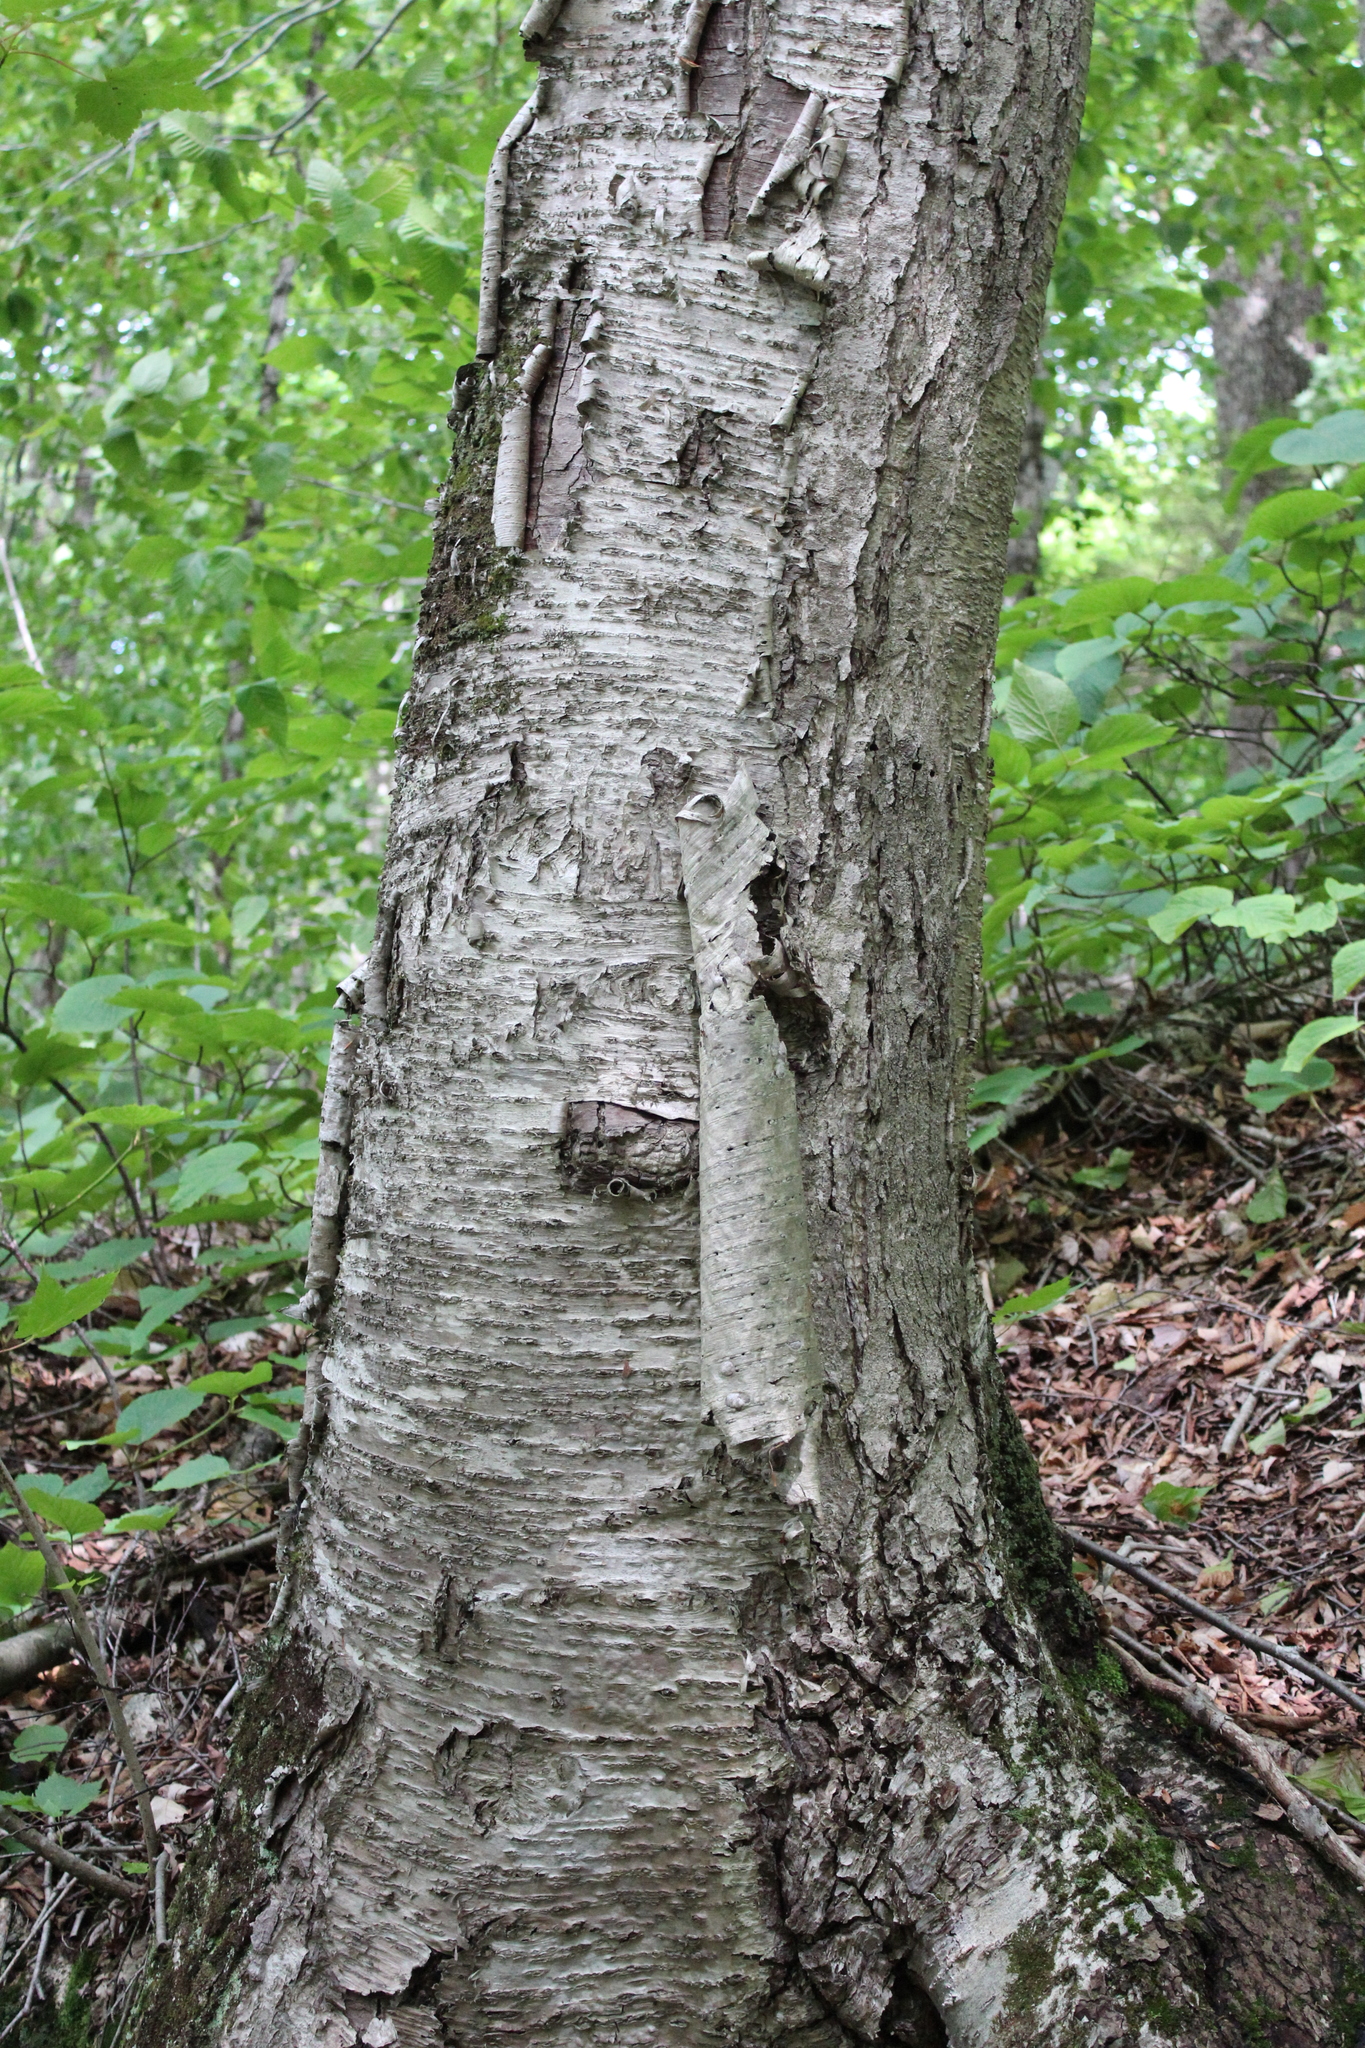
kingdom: Plantae
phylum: Tracheophyta
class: Magnoliopsida
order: Fagales
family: Betulaceae
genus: Betula
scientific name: Betula alleghaniensis
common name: Yellow birch
